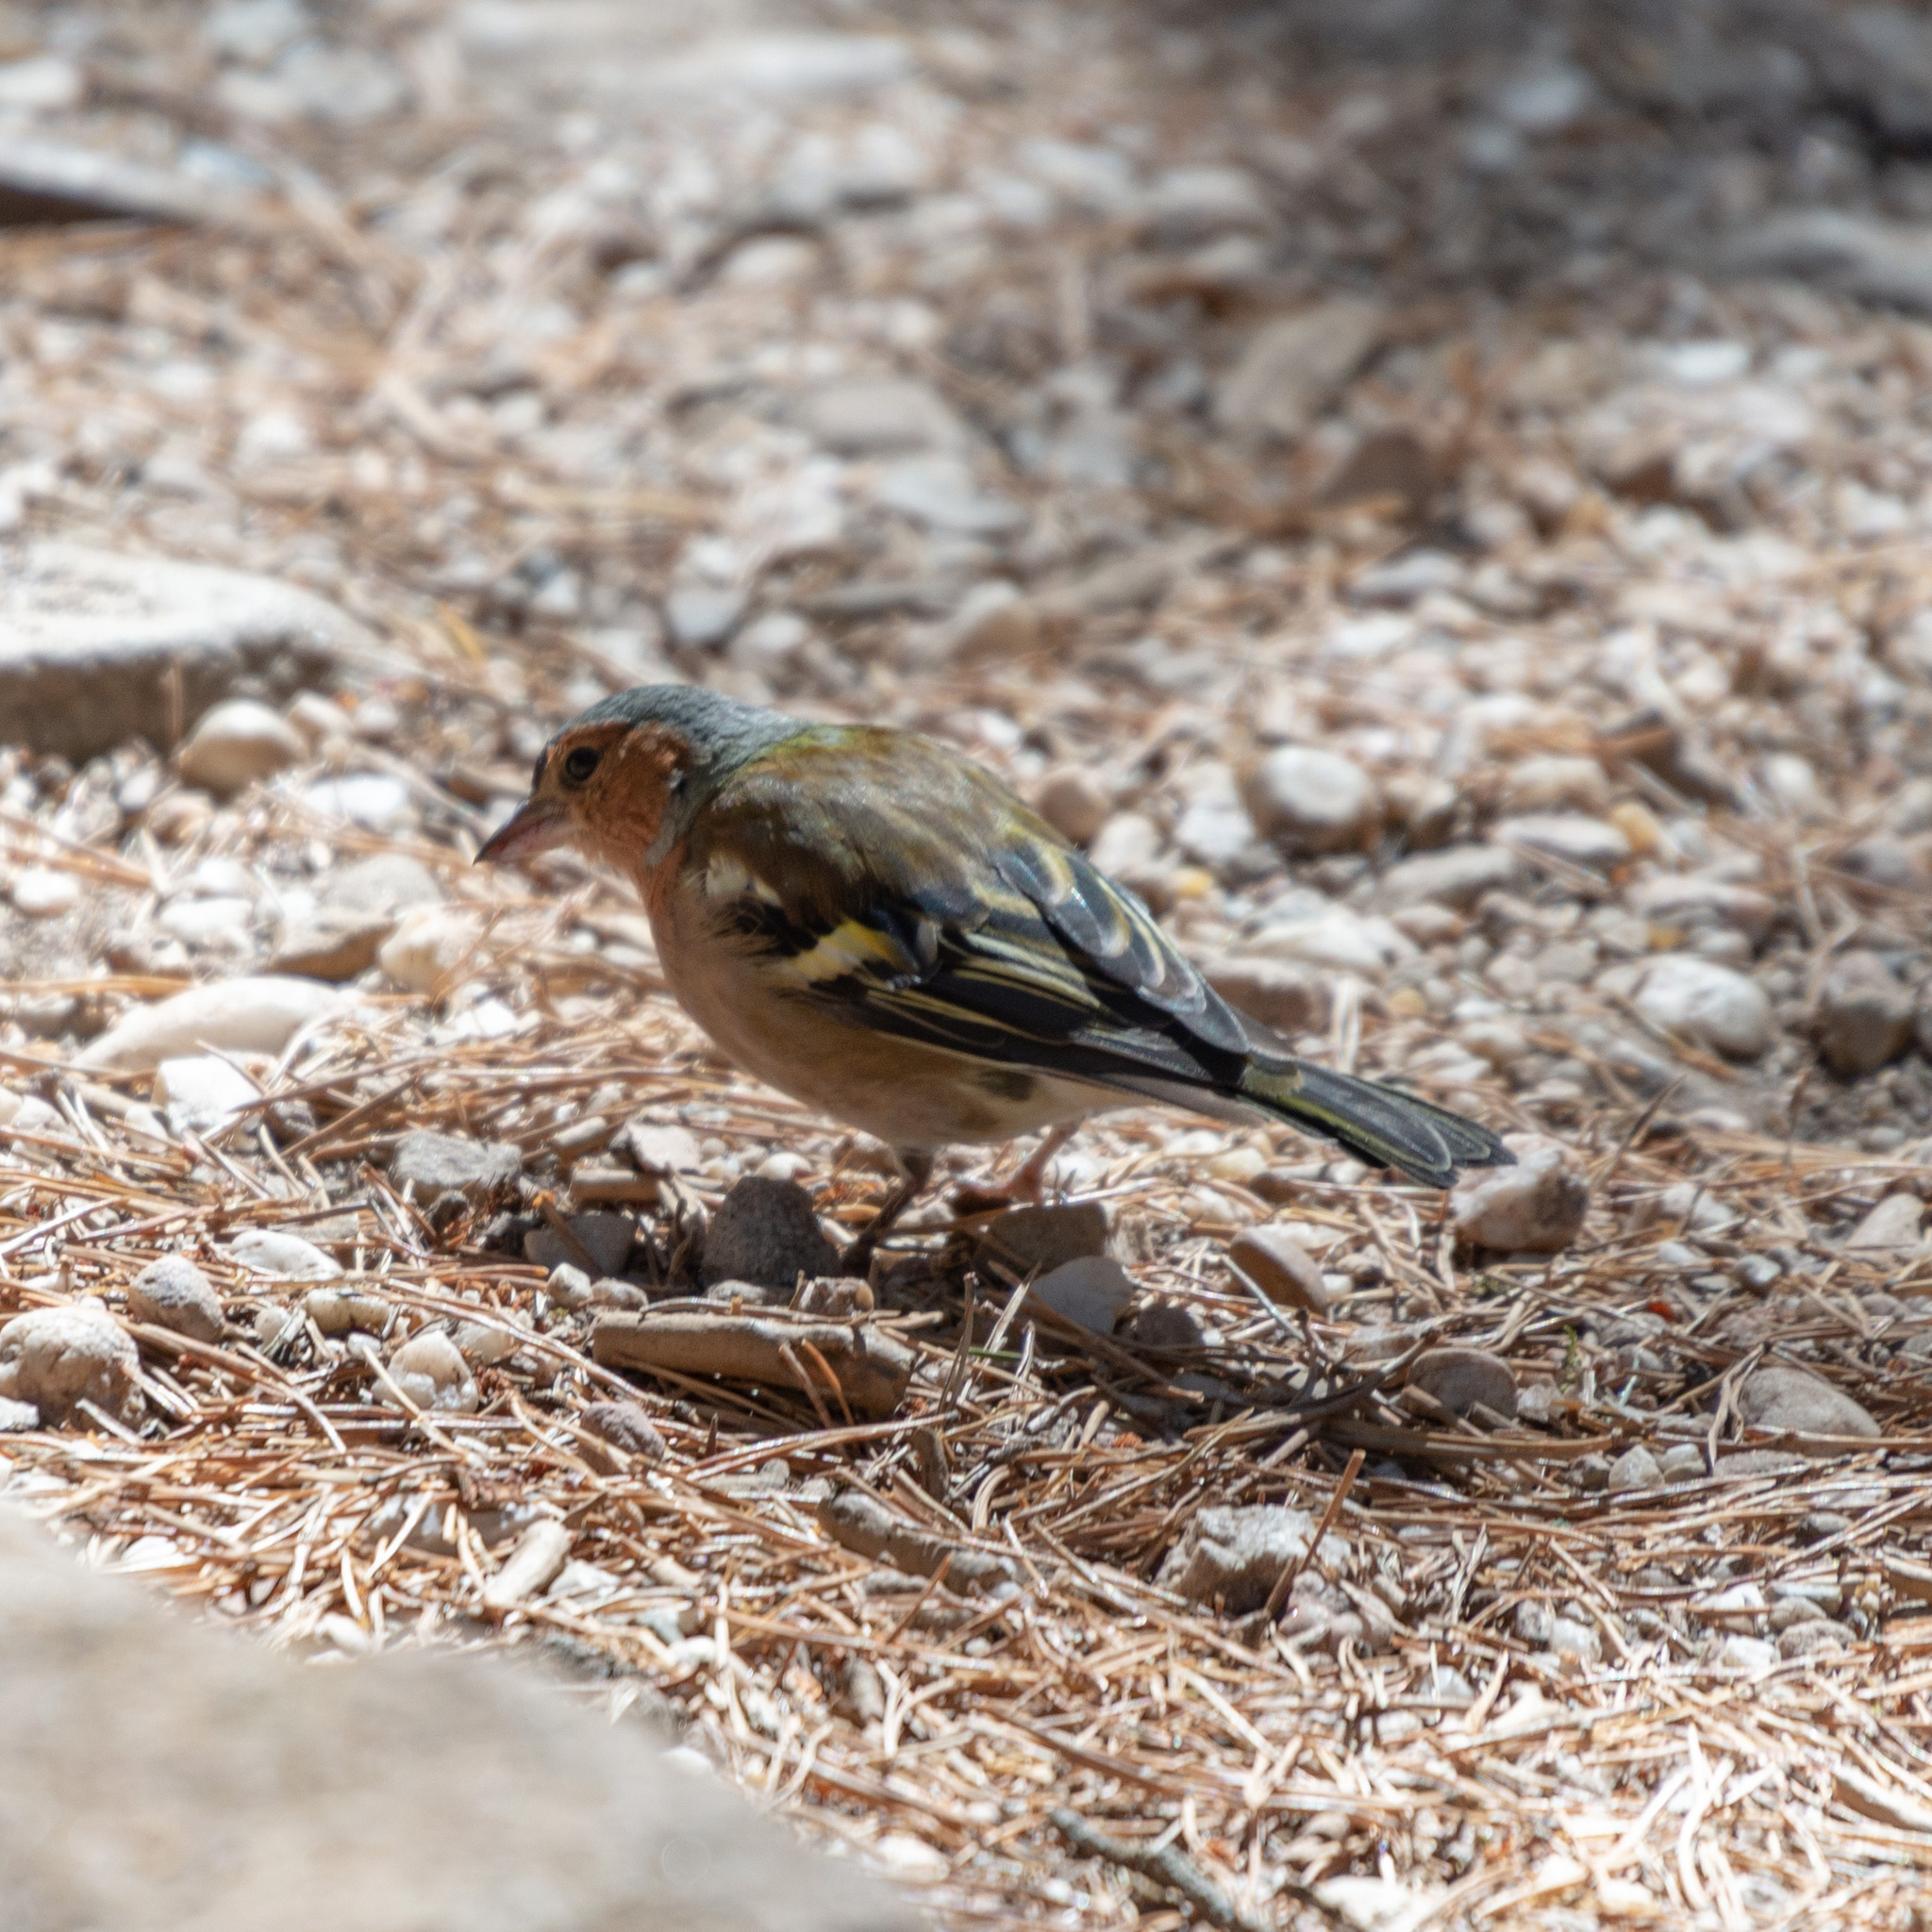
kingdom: Animalia
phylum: Chordata
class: Aves
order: Passeriformes
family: Fringillidae
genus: Fringilla
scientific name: Fringilla coelebs
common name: Common chaffinch
